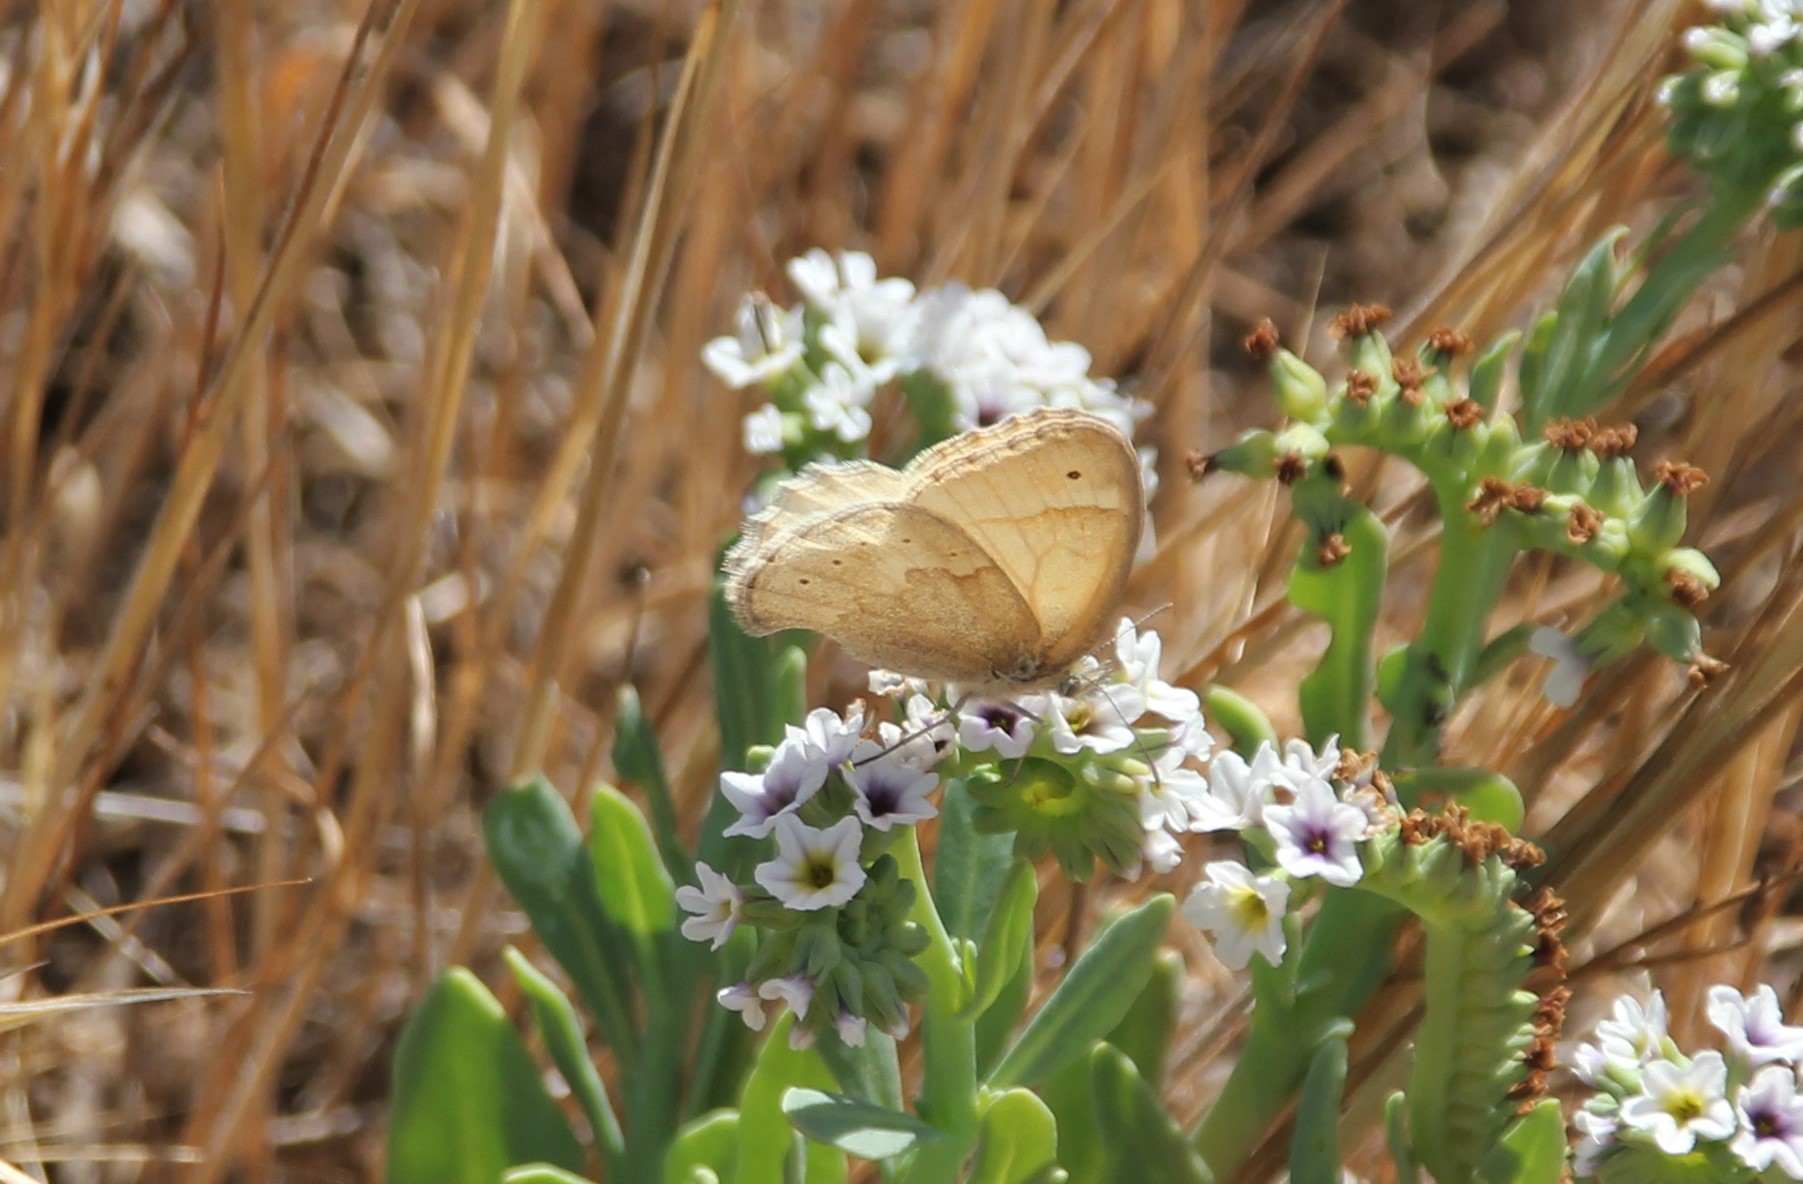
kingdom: Animalia
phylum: Arthropoda
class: Insecta
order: Lepidoptera
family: Nymphalidae
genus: Coenonympha
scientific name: Coenonympha california
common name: Common ringlet
